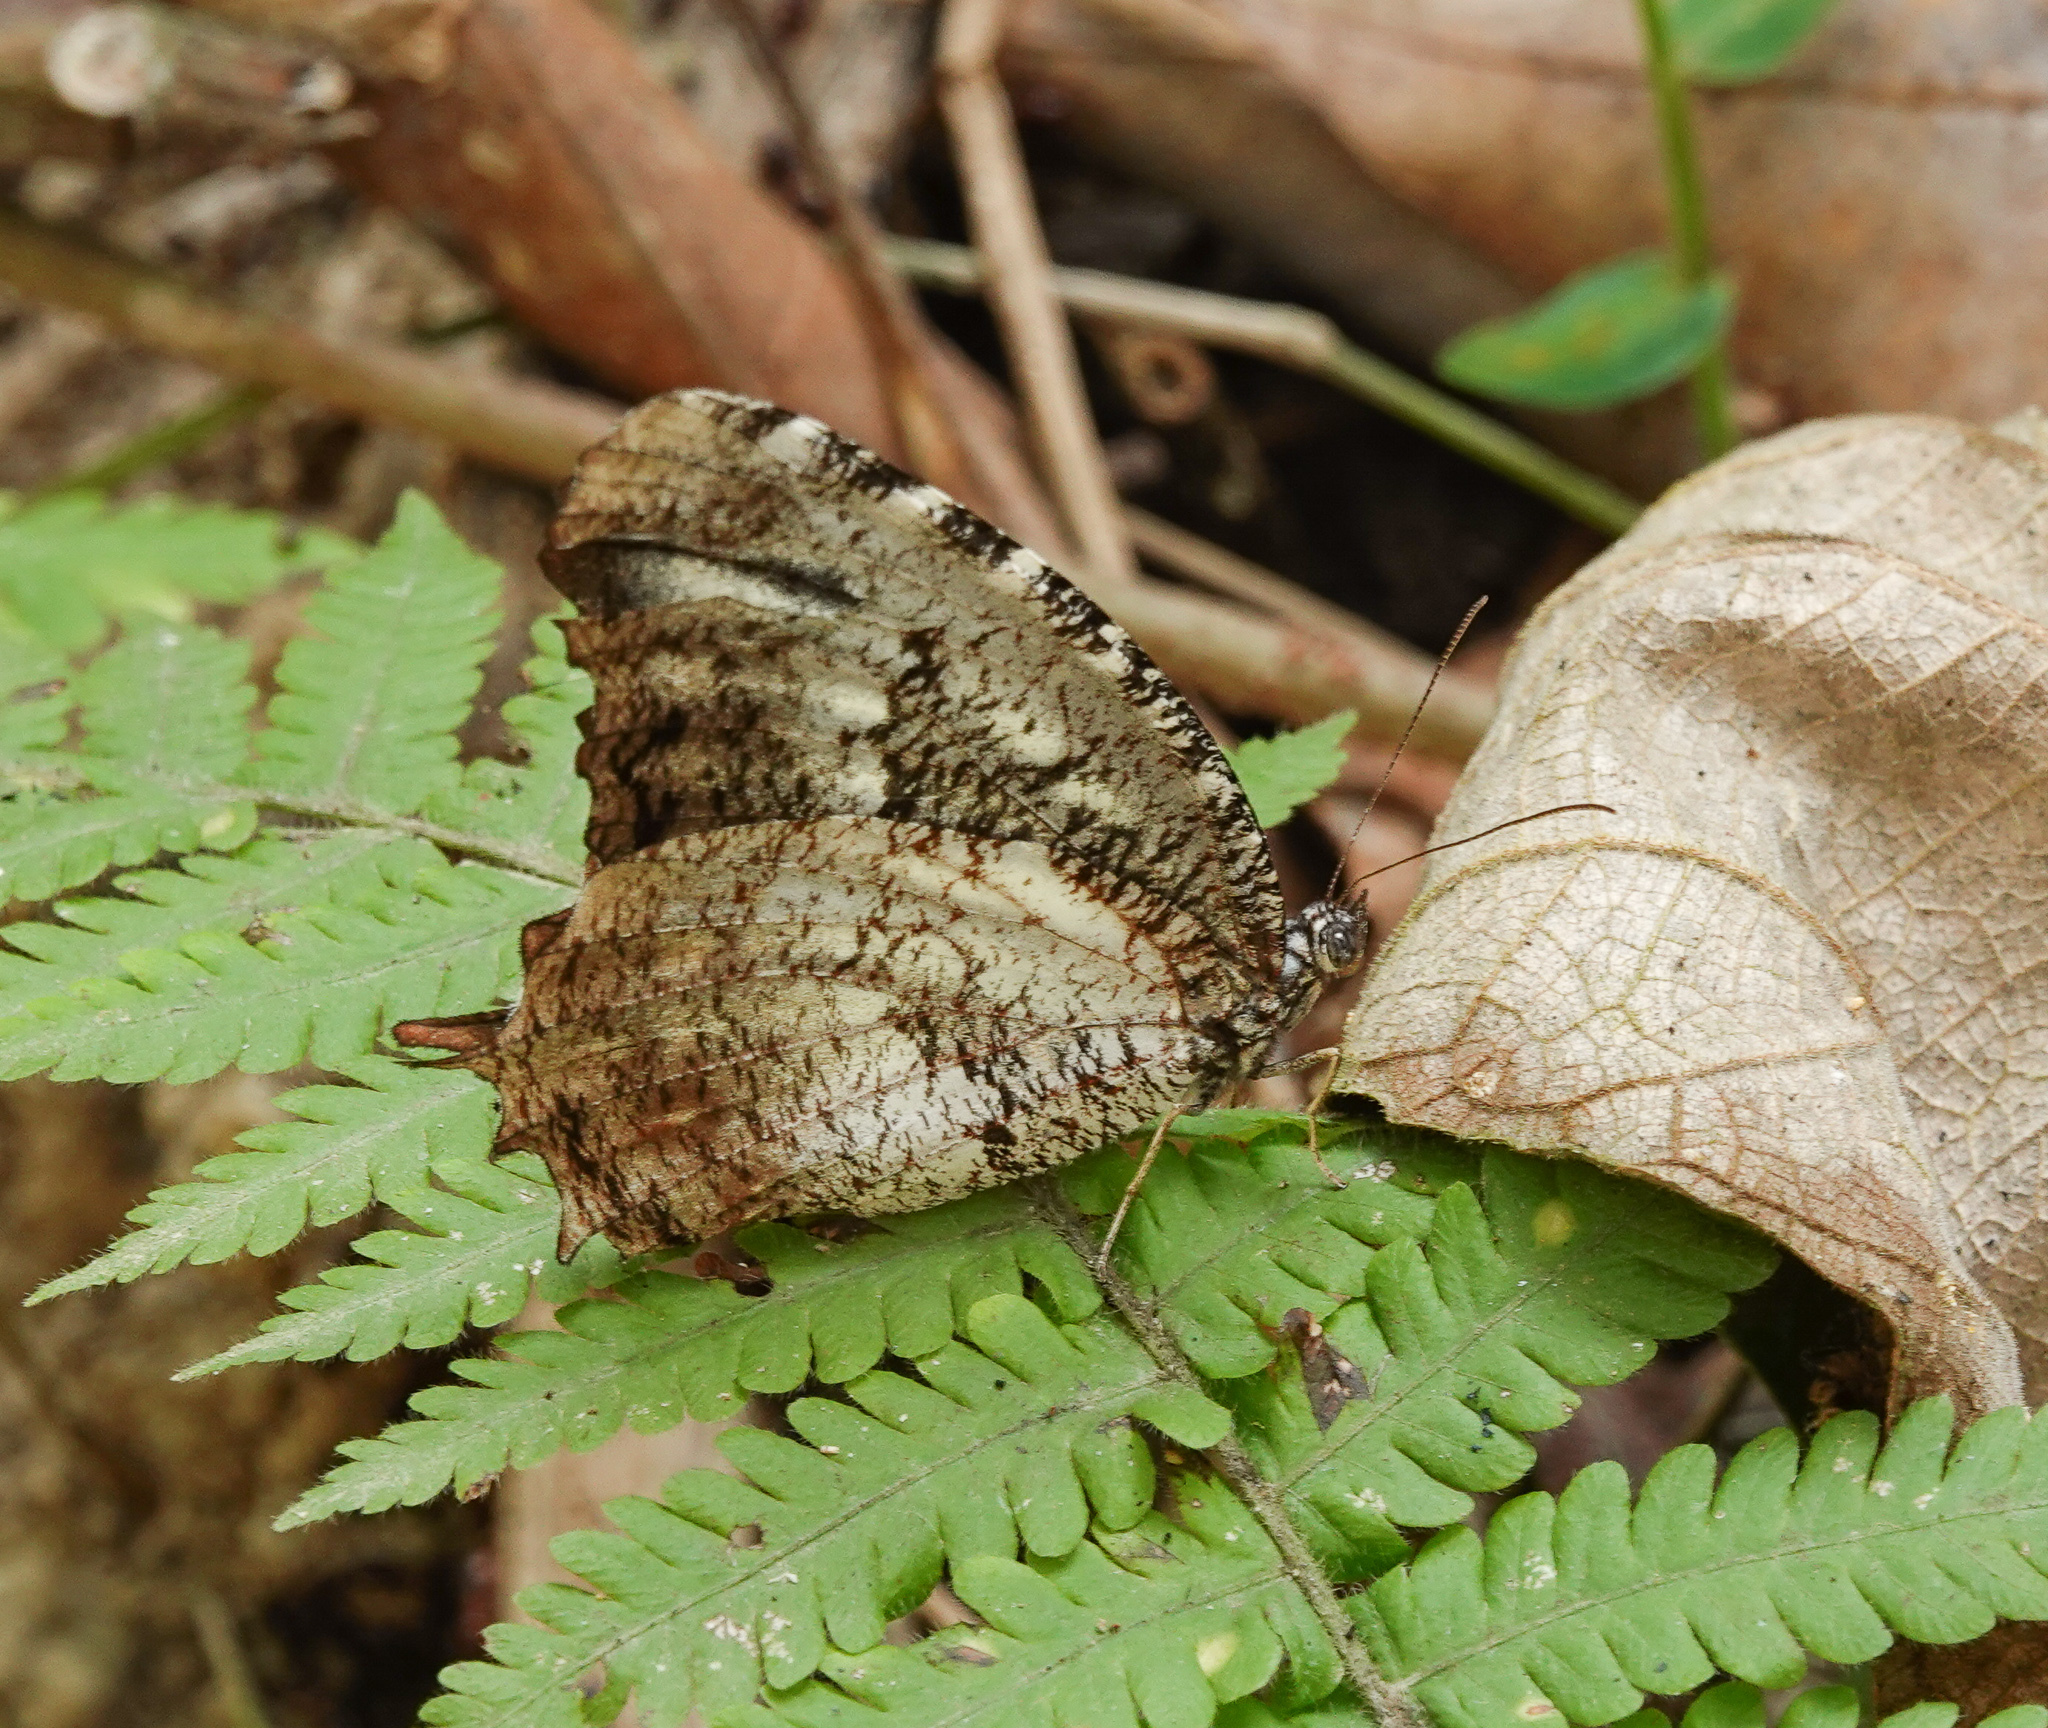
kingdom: Animalia
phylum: Arthropoda
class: Insecta
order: Lepidoptera
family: Nymphalidae
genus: Elymnias
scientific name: Elymnias nesaea
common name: Tiger palmfly
